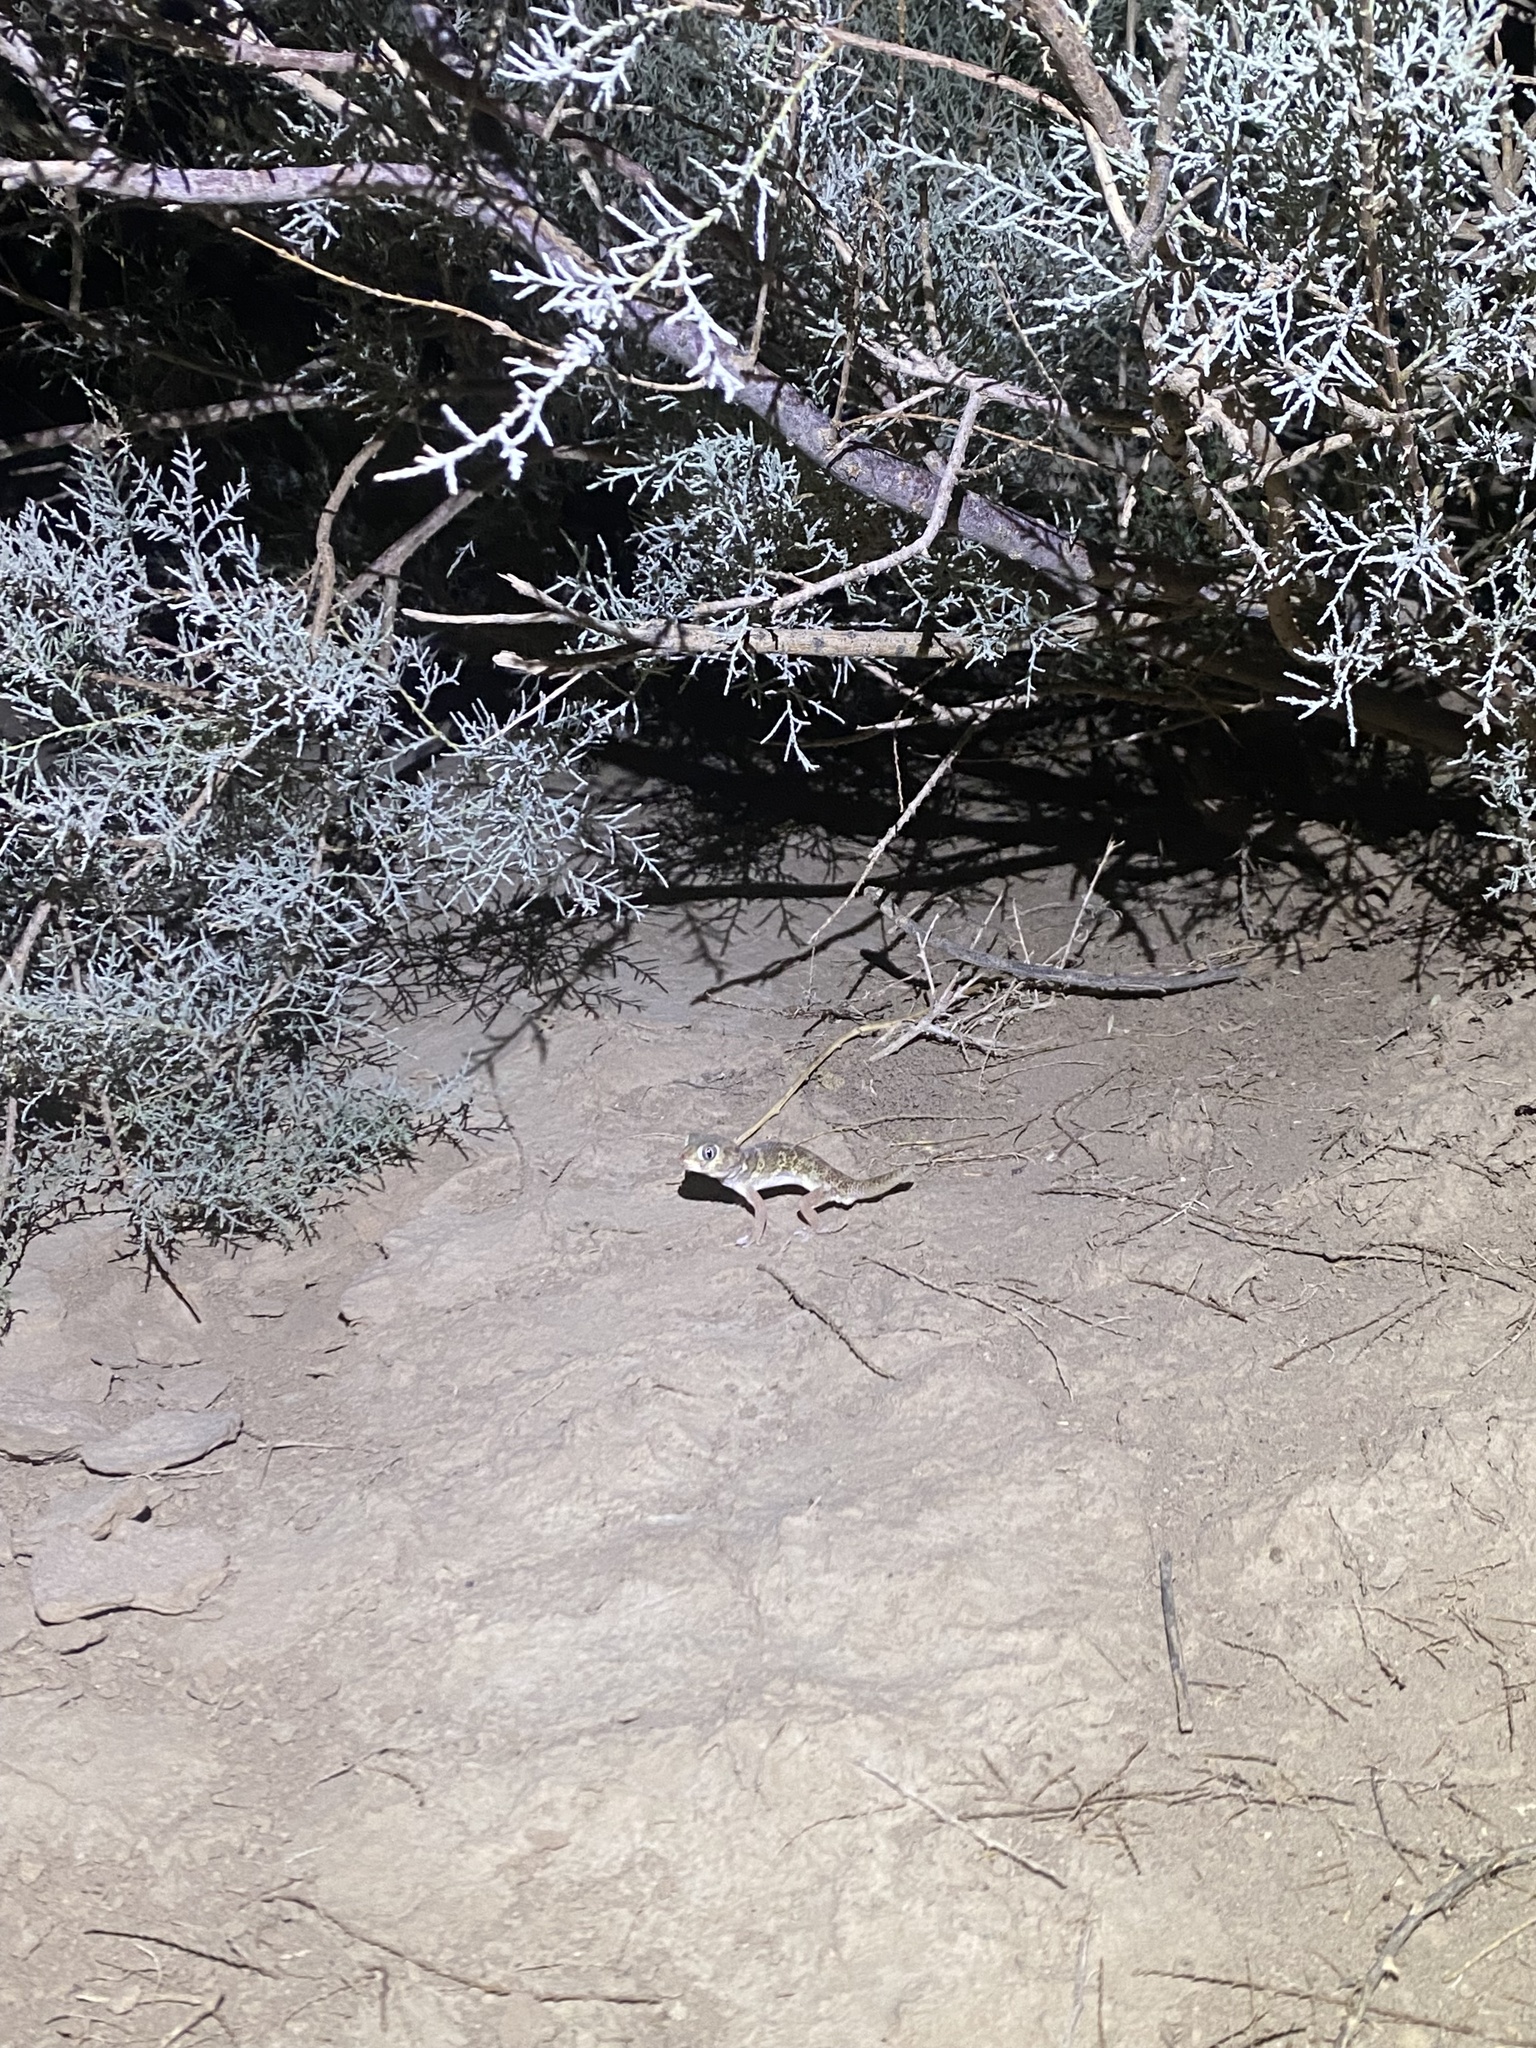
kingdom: Animalia
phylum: Chordata
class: Squamata
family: Sphaerodactylidae
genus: Teratoscincus
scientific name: Teratoscincus bedriagai
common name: Bedriaga's plate-tailed gecko
